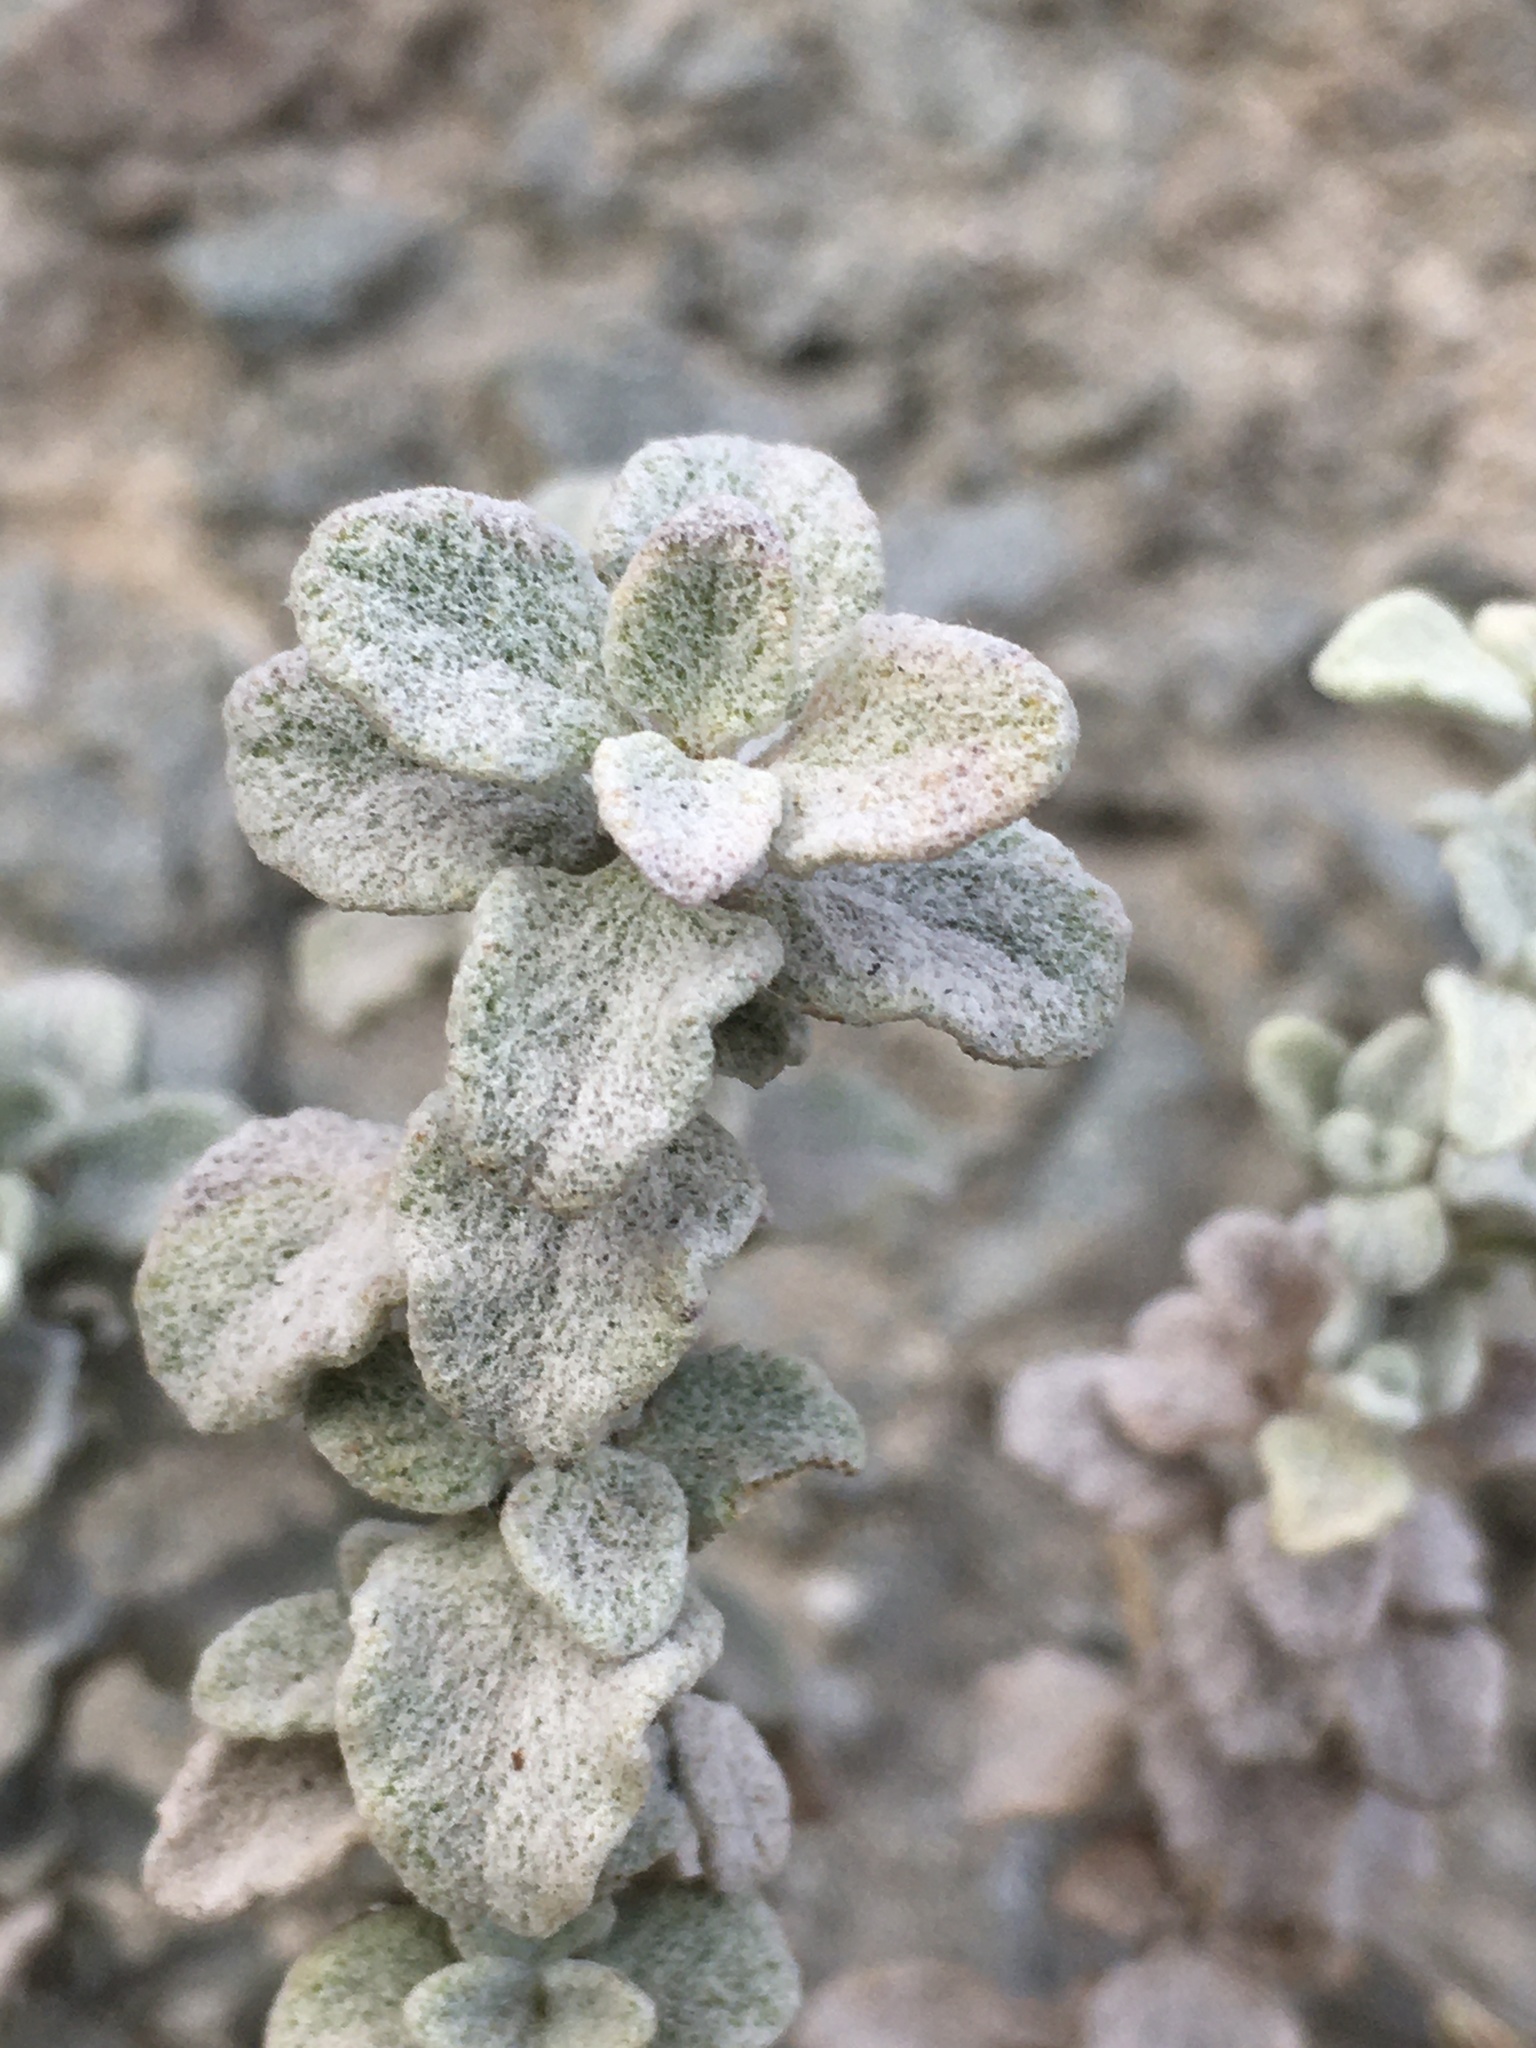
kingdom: Plantae
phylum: Tracheophyta
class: Magnoliopsida
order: Lamiales
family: Calceolariaceae
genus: Calceolaria
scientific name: Calceolaria polifolia
